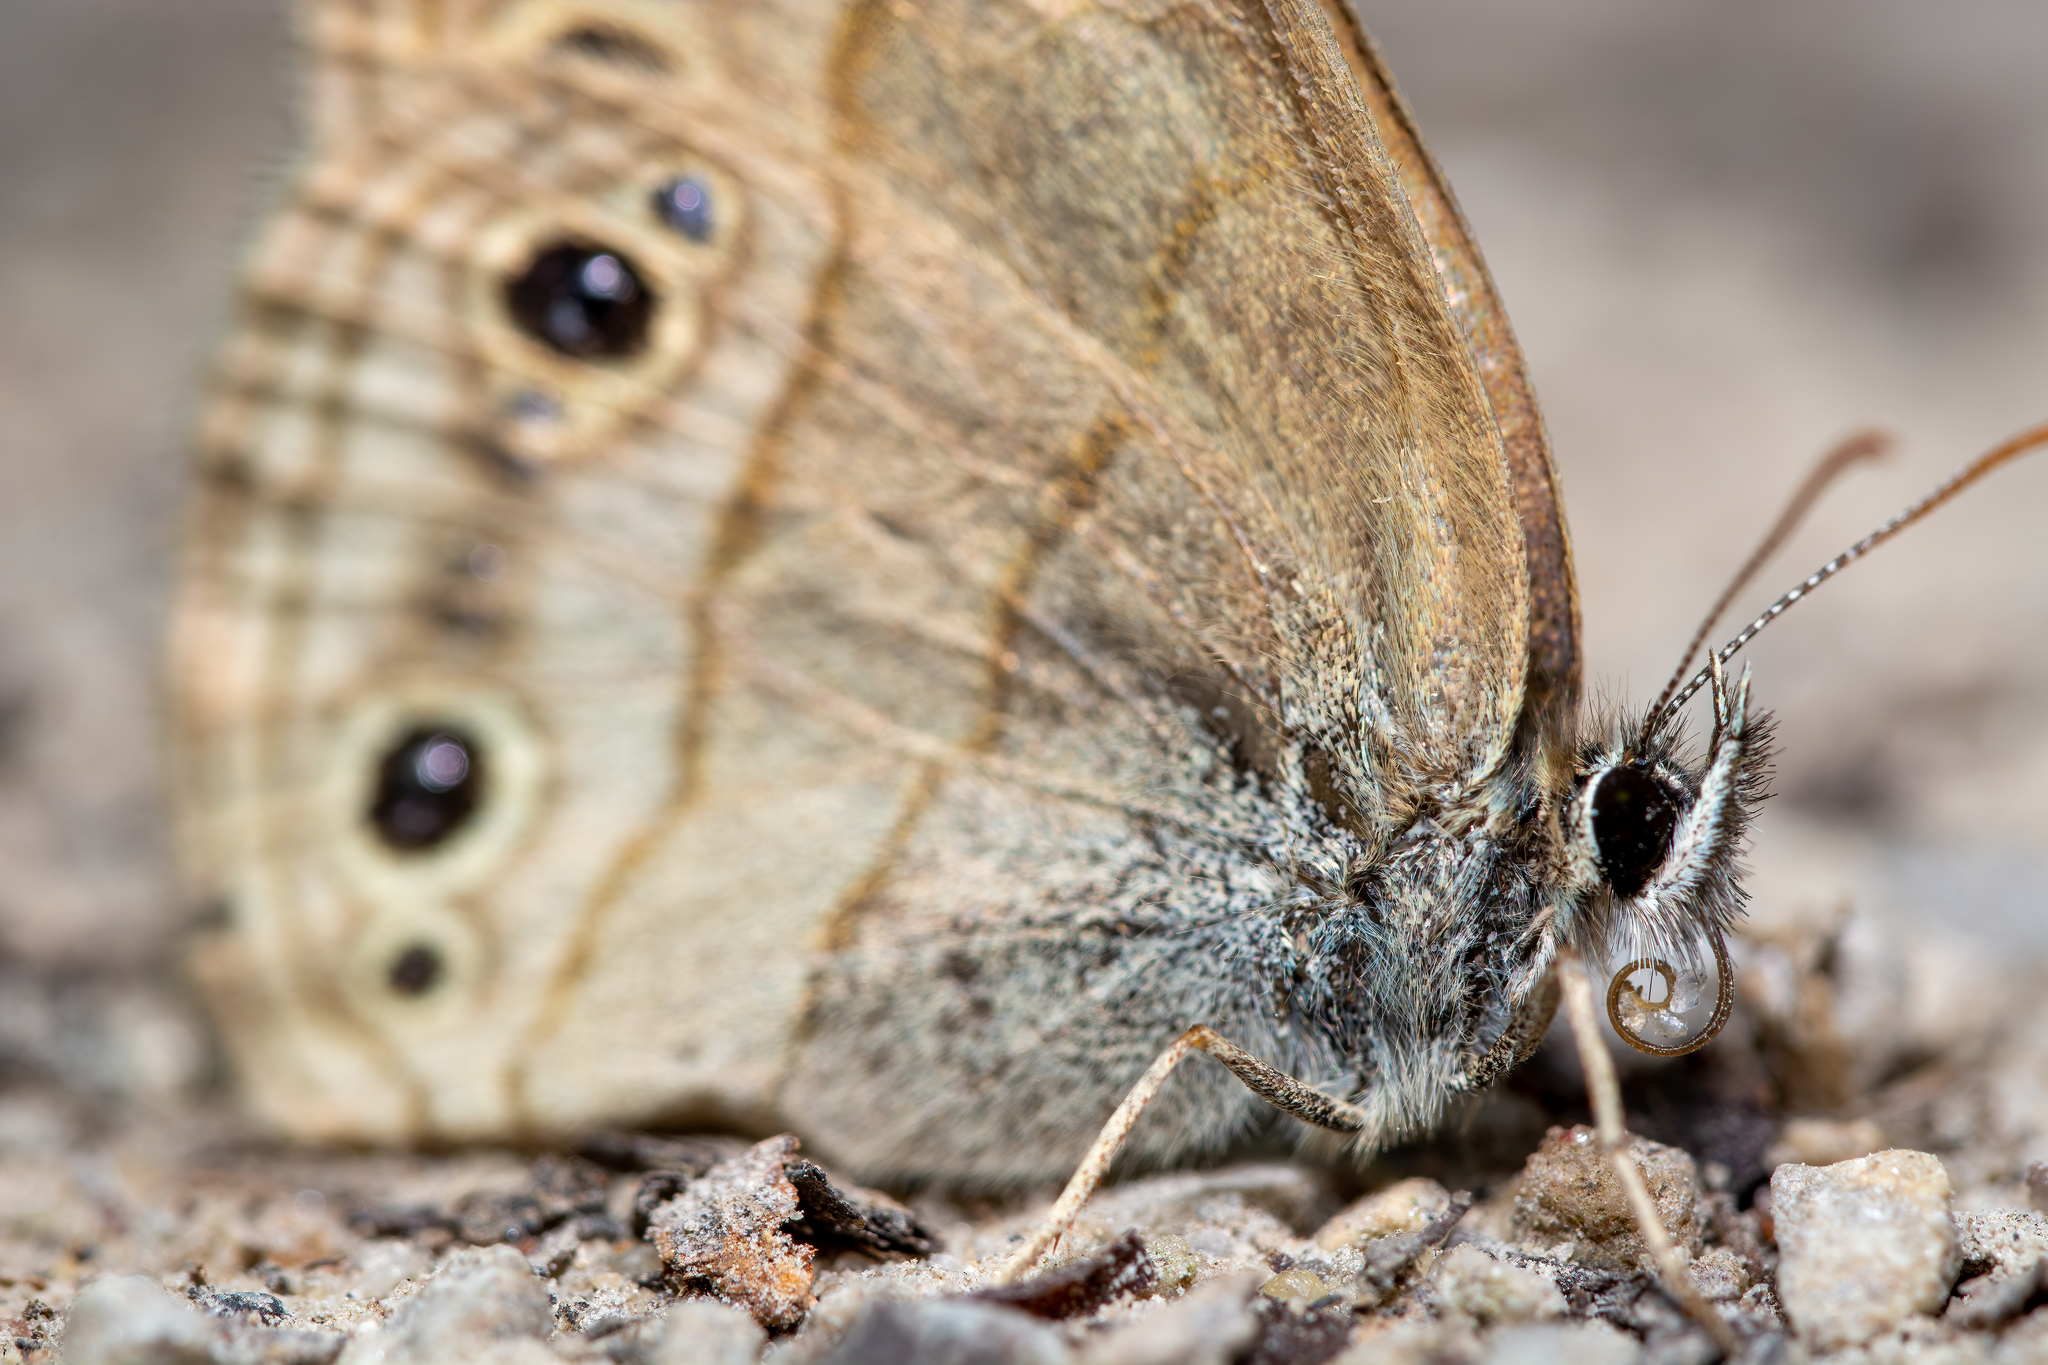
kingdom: Animalia
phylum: Arthropoda
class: Insecta
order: Lepidoptera
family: Nymphalidae
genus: Euptychia
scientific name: Euptychia cymela
